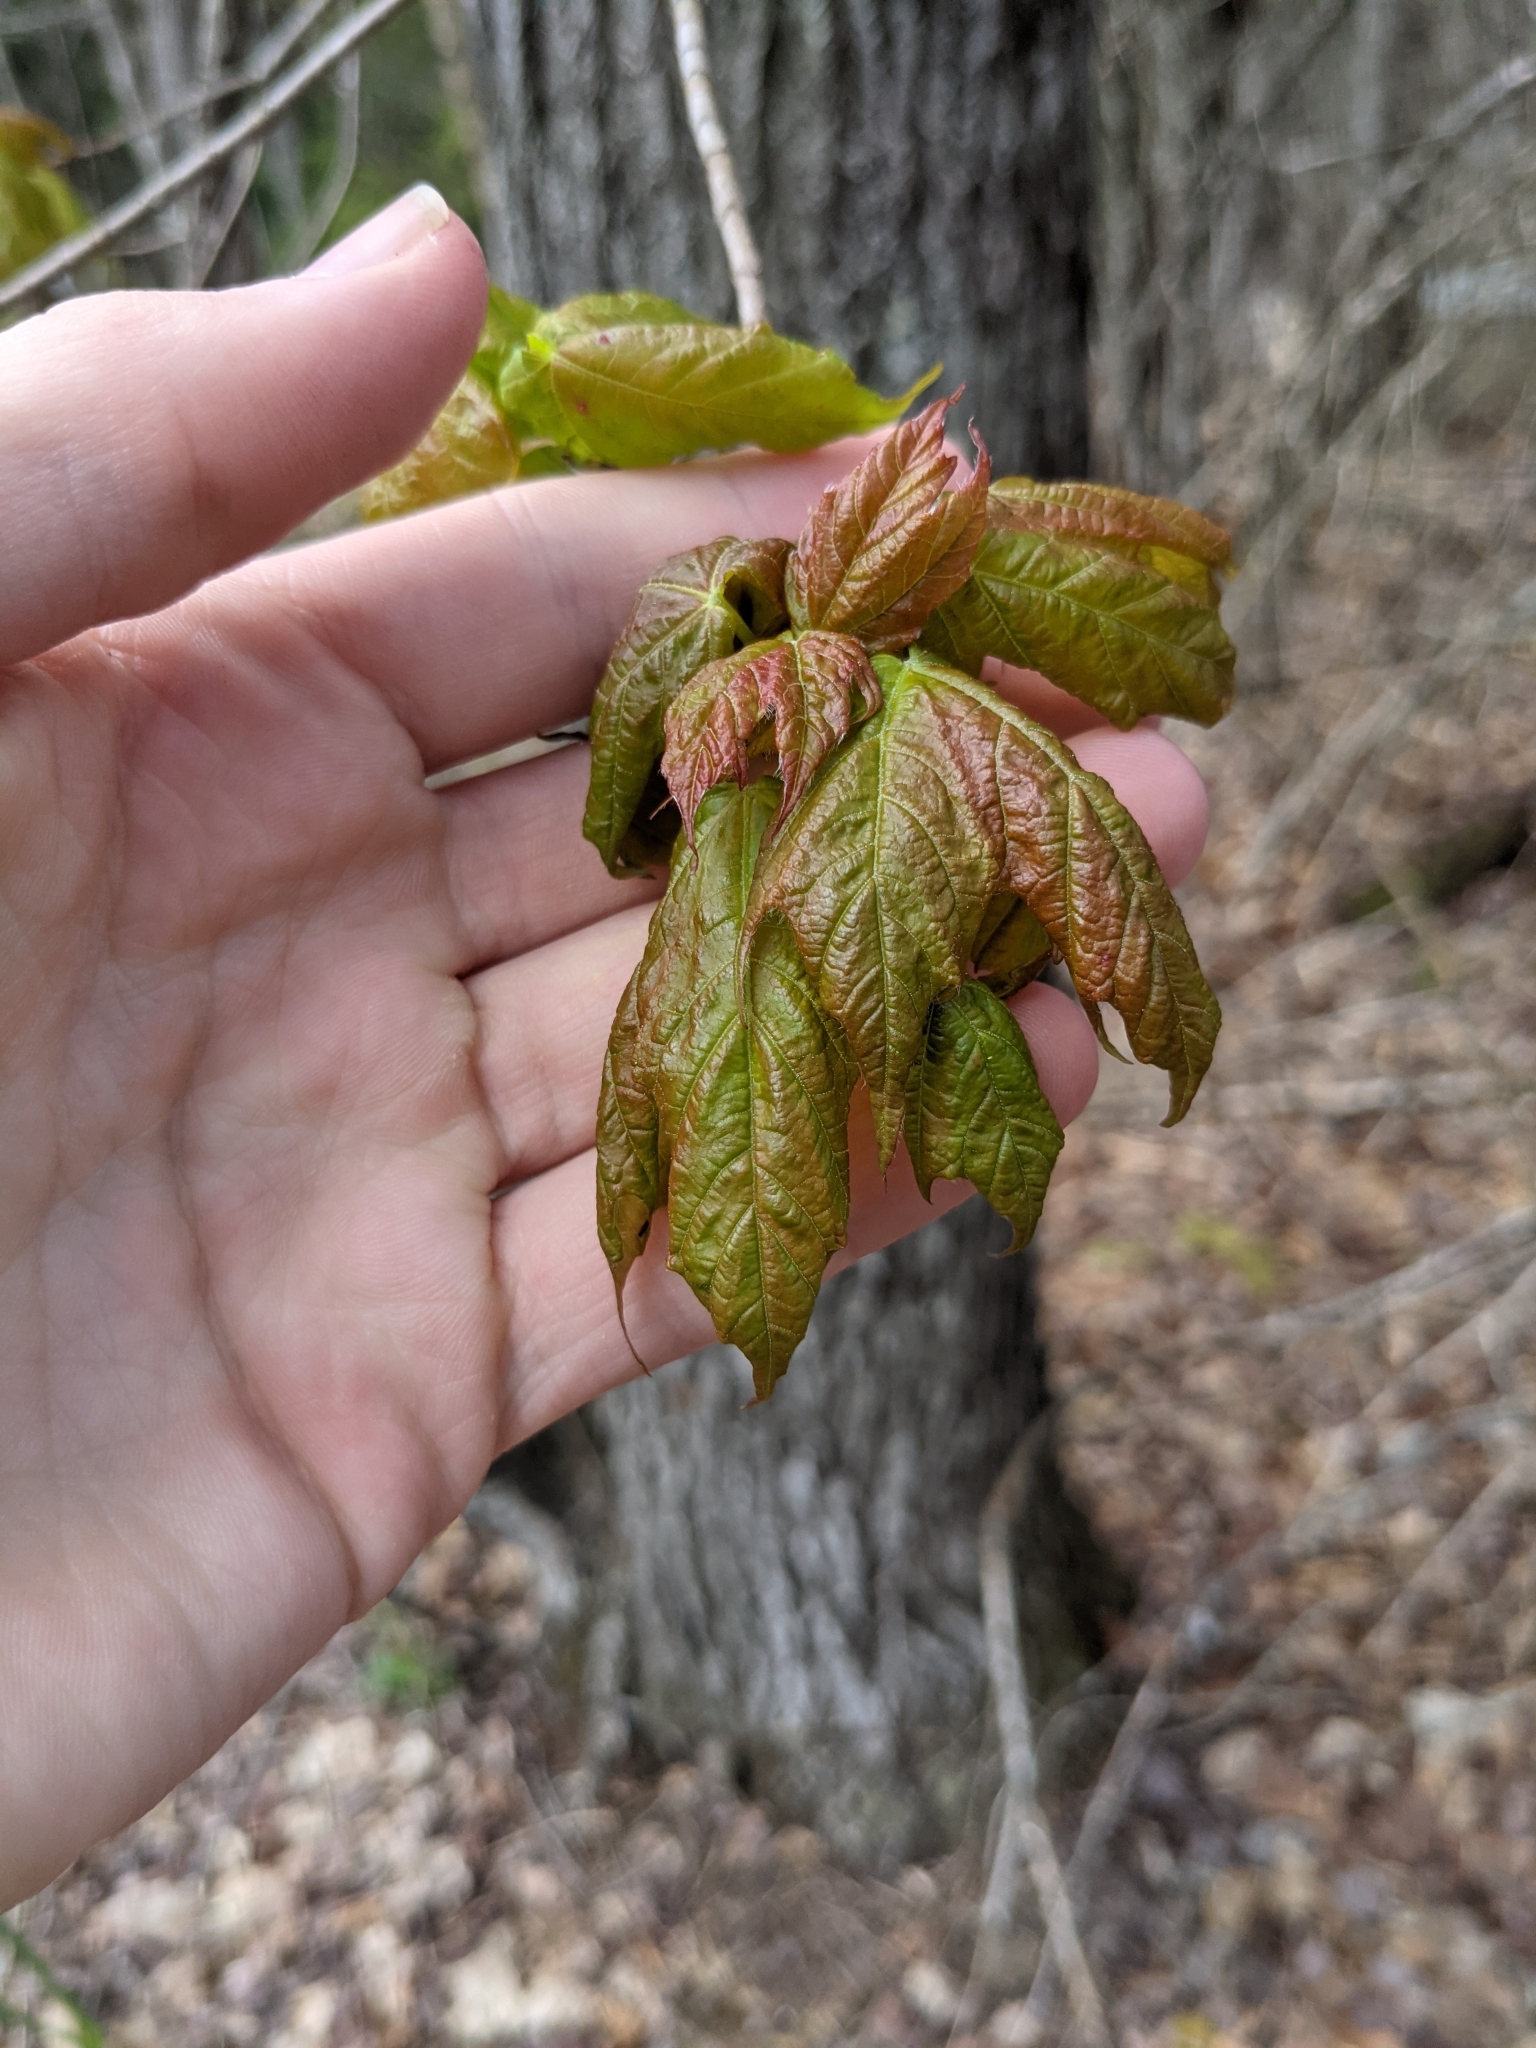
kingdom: Plantae
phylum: Tracheophyta
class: Magnoliopsida
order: Sapindales
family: Sapindaceae
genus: Acer
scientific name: Acer rubrum
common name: Red maple
